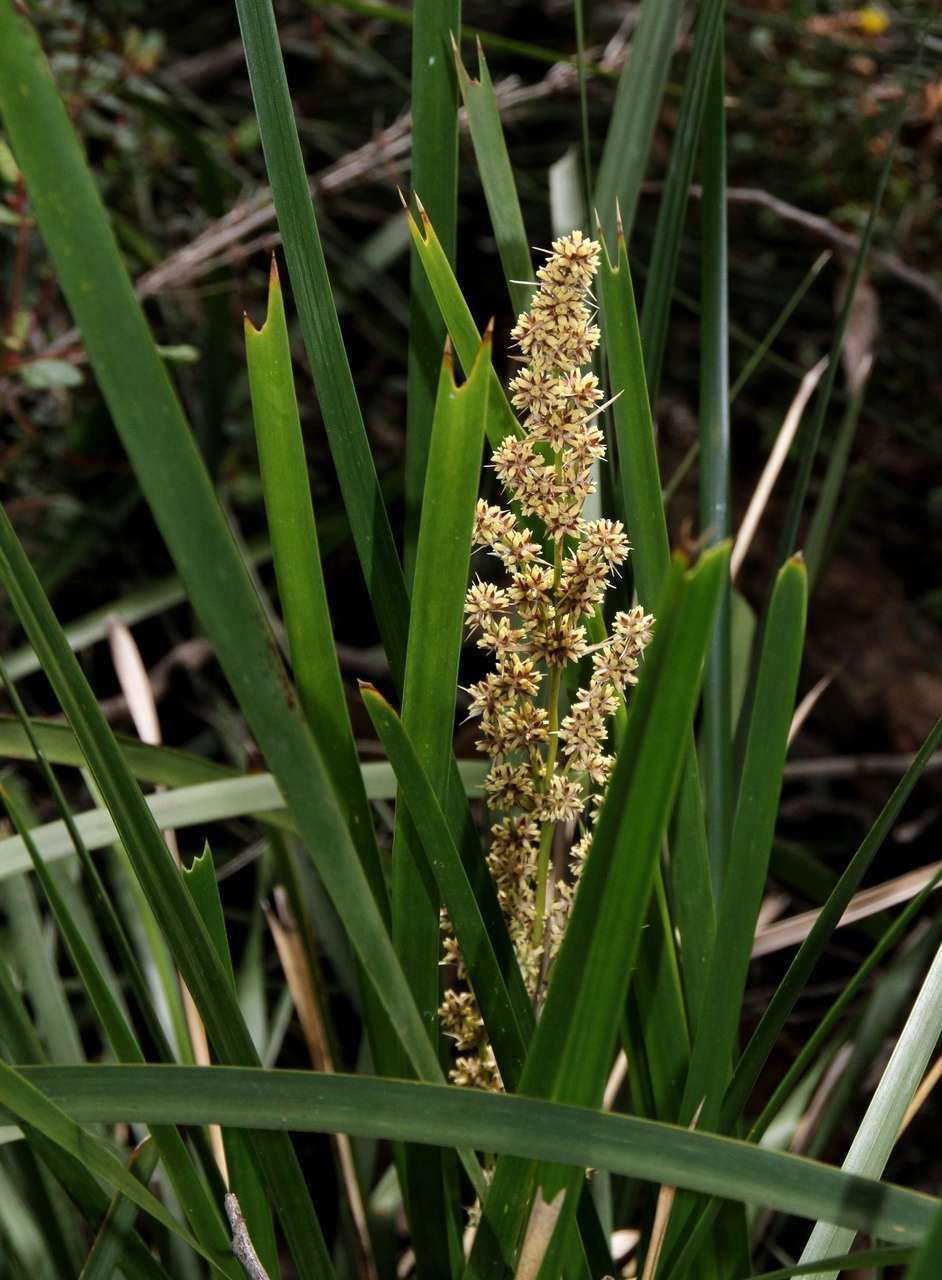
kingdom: Plantae
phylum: Tracheophyta
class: Liliopsida
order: Asparagales
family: Asparagaceae
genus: Lomandra
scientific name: Lomandra longifolia
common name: Longleaf mat-rush
